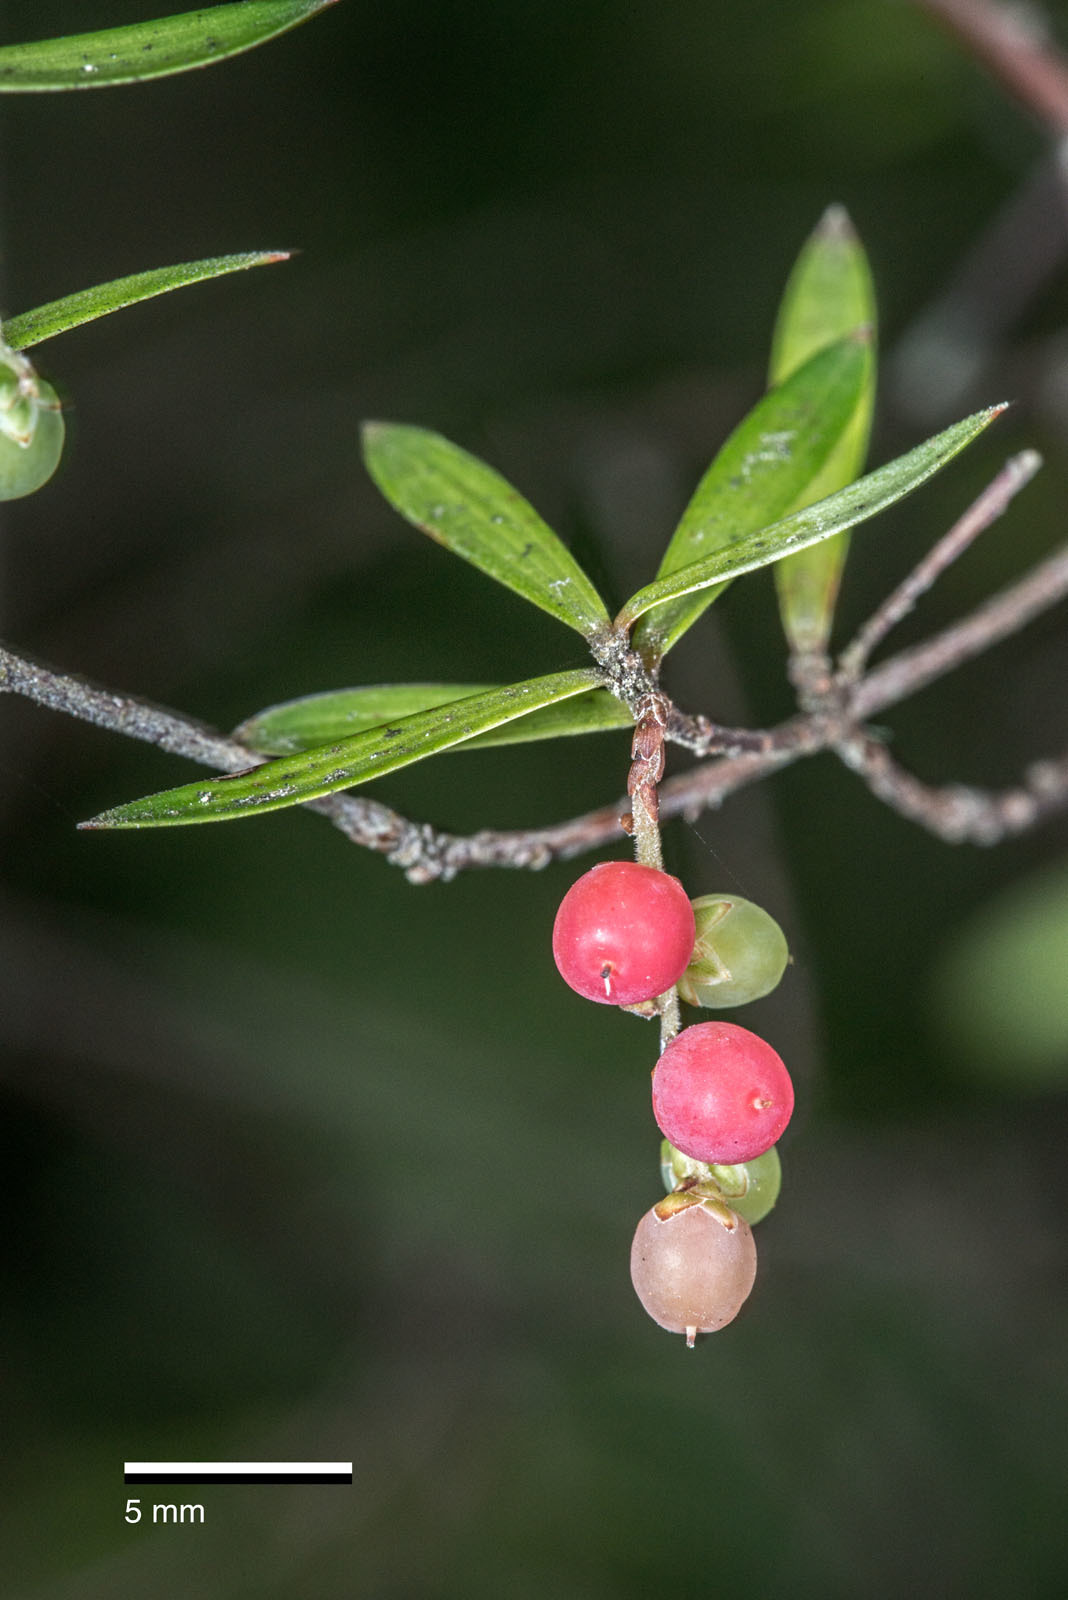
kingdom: Plantae
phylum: Tracheophyta
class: Magnoliopsida
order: Ericales
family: Ericaceae
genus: Leucopogon
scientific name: Leucopogon fasciculatus
